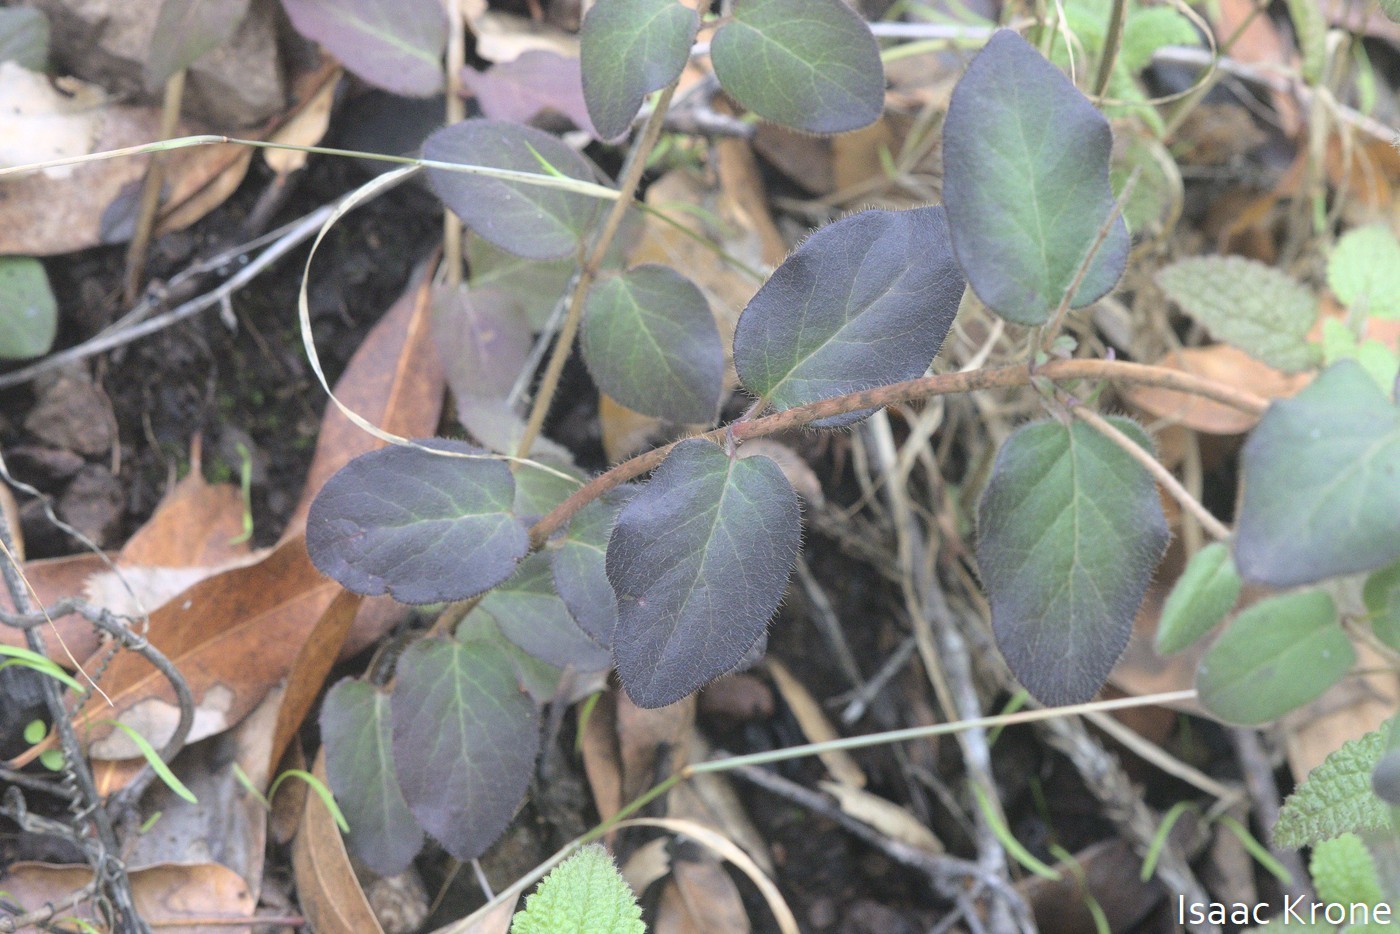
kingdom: Plantae
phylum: Tracheophyta
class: Magnoliopsida
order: Dipsacales
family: Caprifoliaceae
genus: Lonicera
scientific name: Lonicera hispidula
